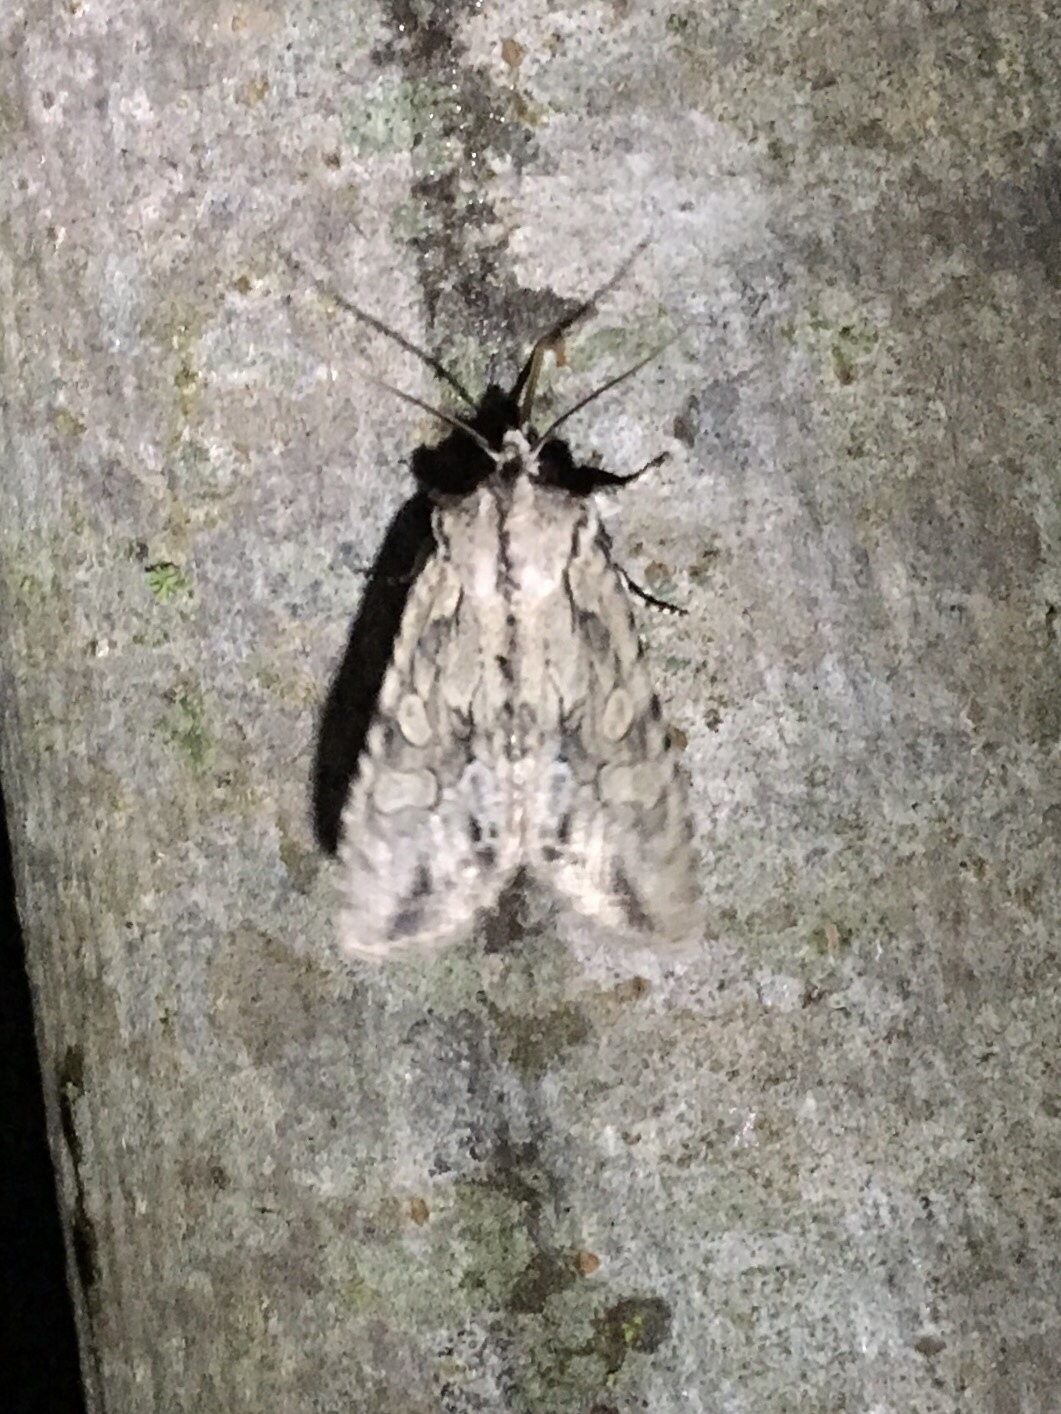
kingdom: Animalia
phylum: Arthropoda
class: Insecta
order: Lepidoptera
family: Noctuidae
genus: Lithophane
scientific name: Lithophane disposita
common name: Dashed gray pinion moth
